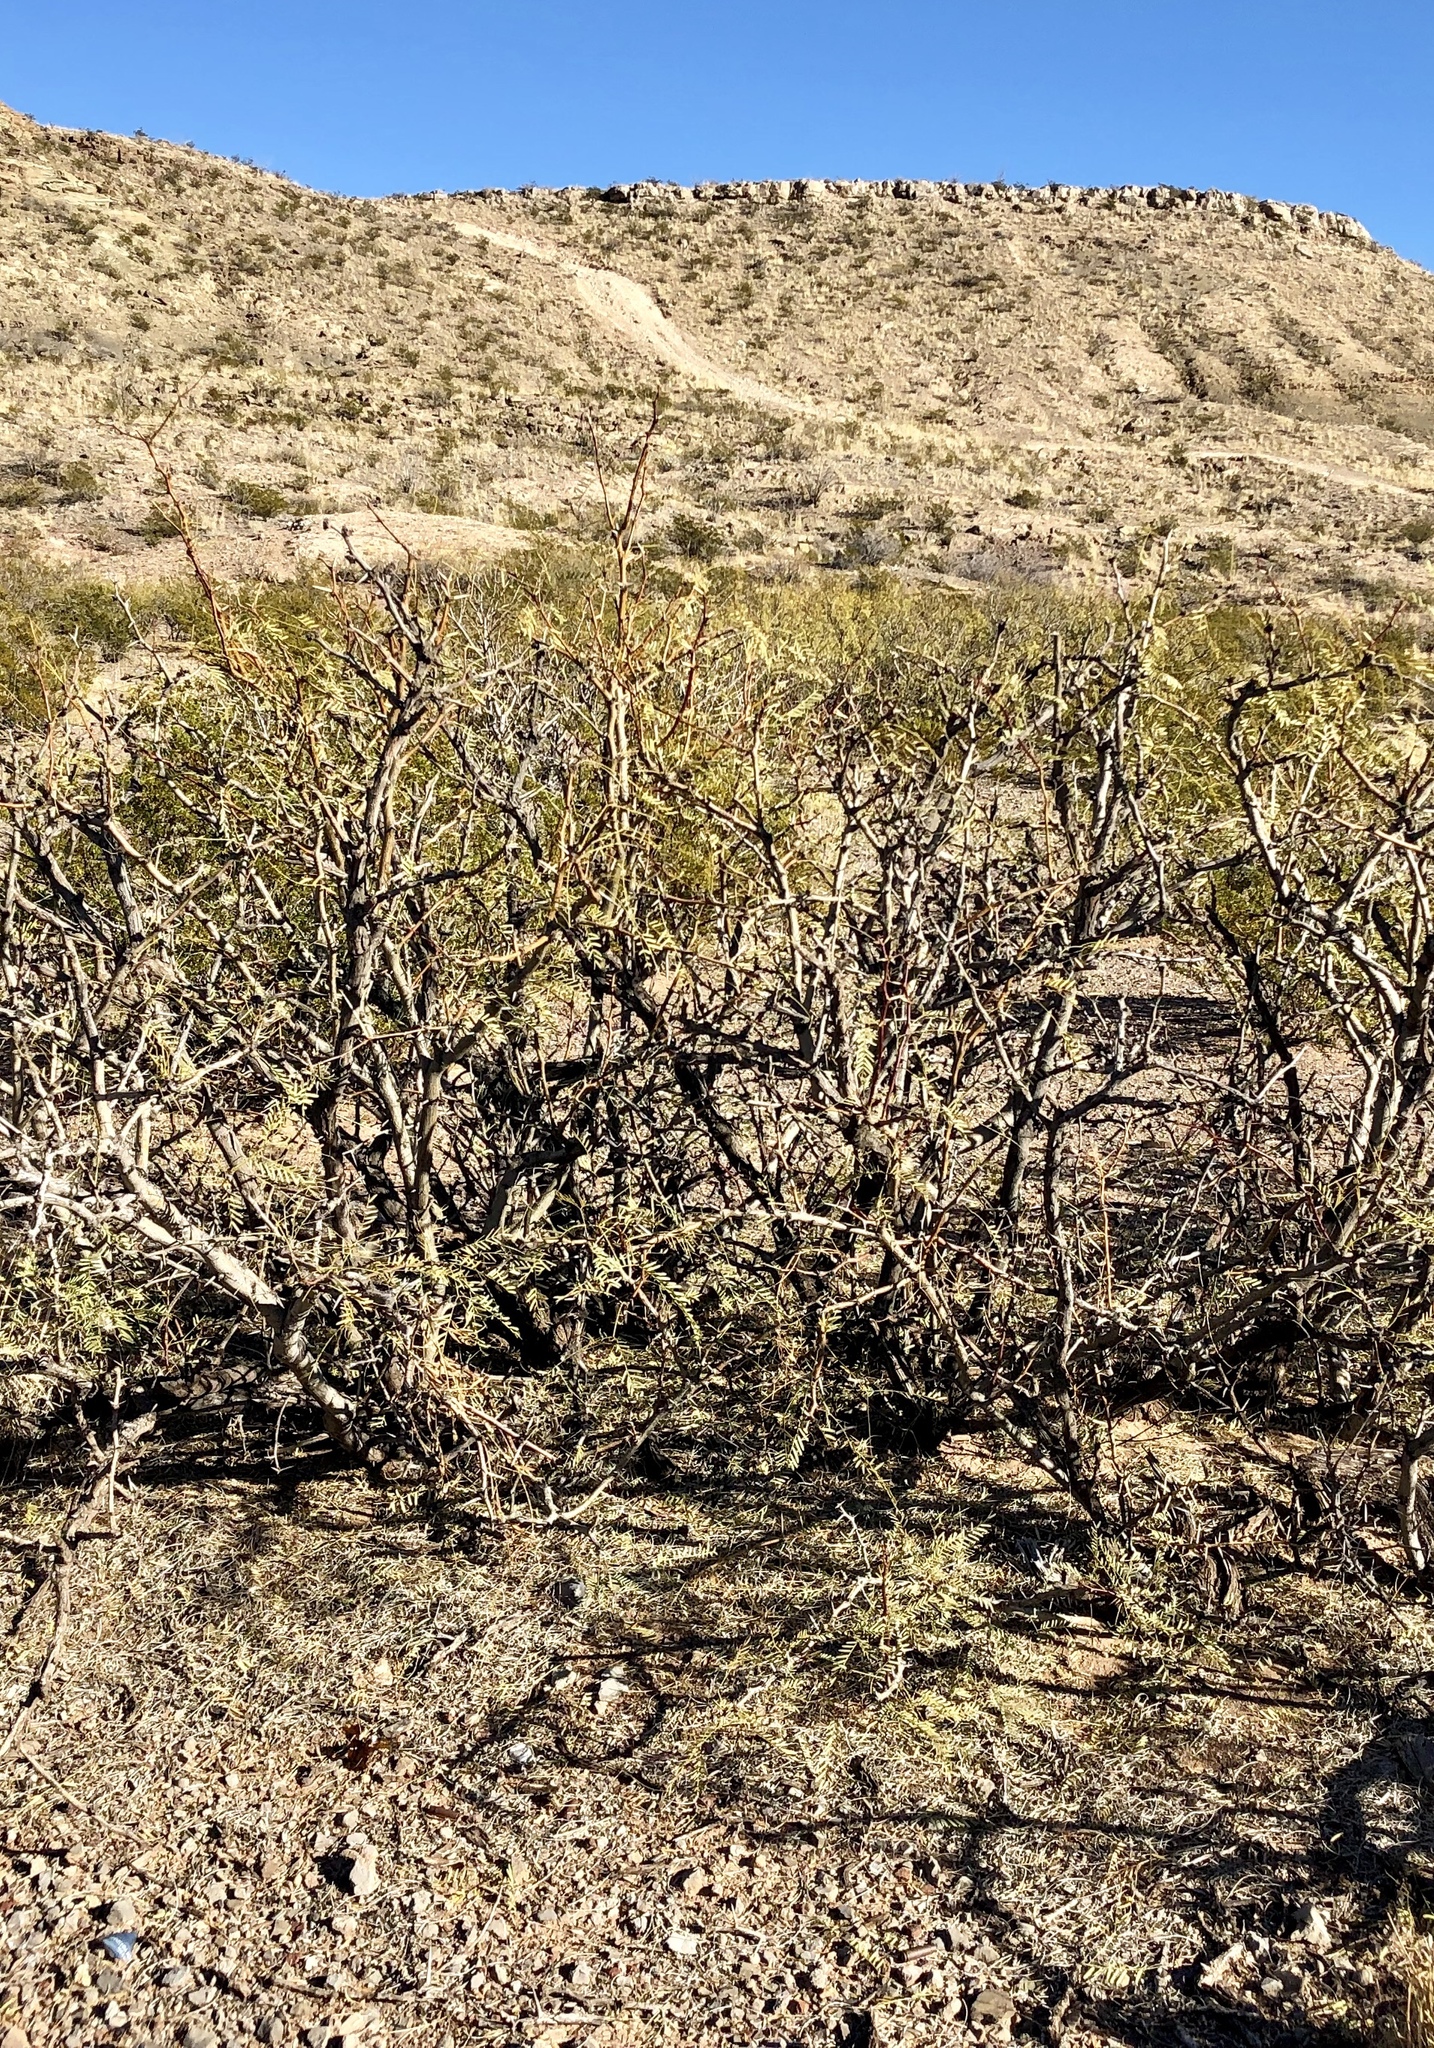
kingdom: Plantae
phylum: Tracheophyta
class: Magnoliopsida
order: Fabales
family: Fabaceae
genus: Prosopis
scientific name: Prosopis glandulosa
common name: Honey mesquite
